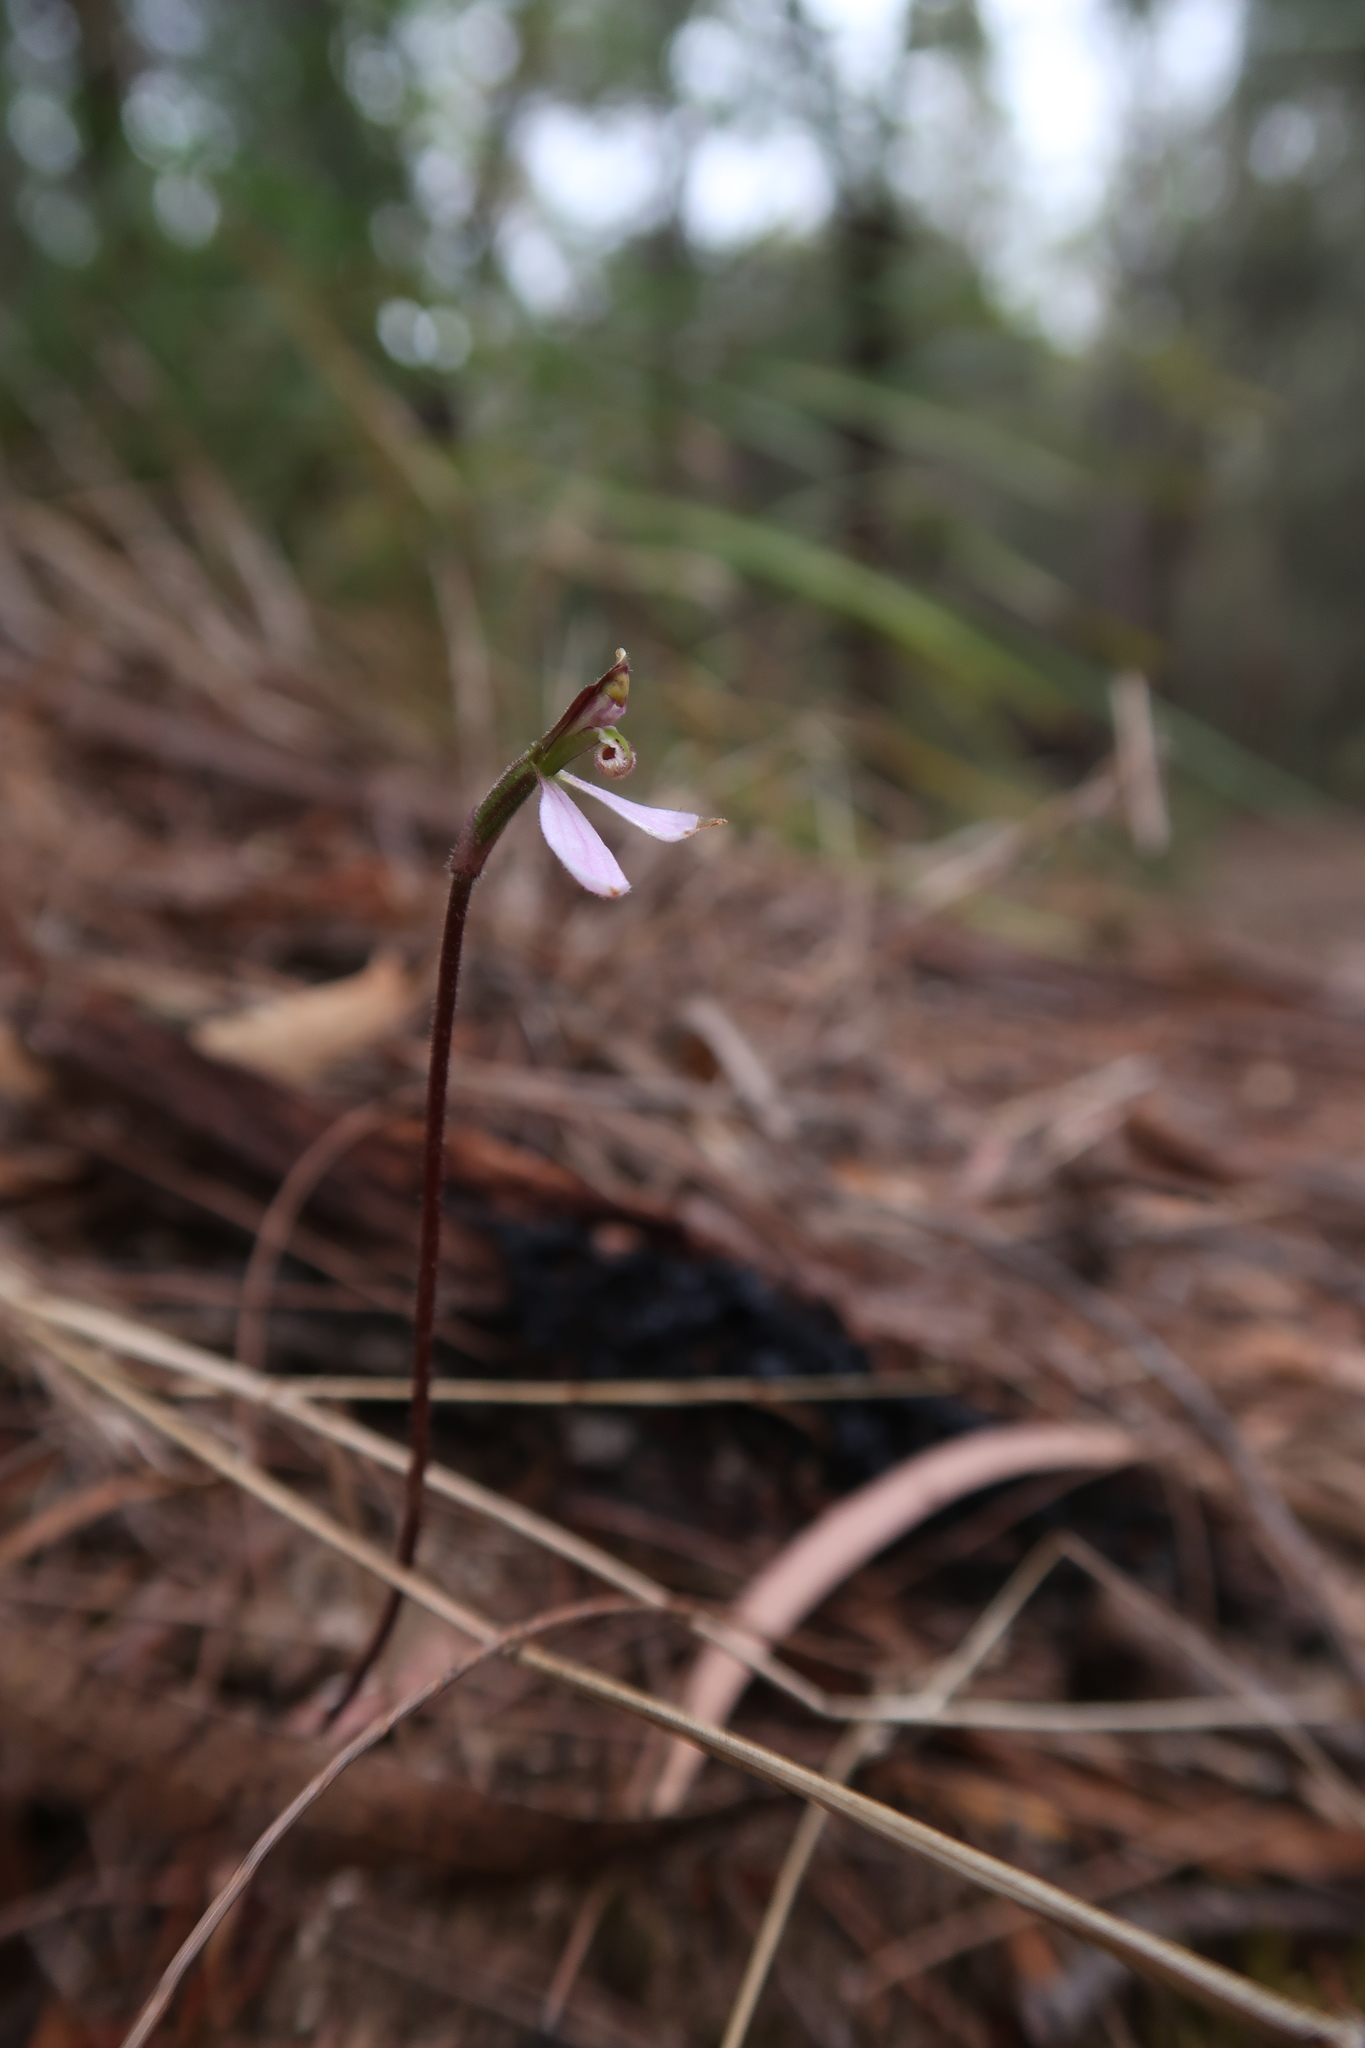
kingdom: Plantae
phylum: Tracheophyta
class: Liliopsida
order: Asparagales
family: Orchidaceae
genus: Eriochilus
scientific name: Eriochilus cucullatus
